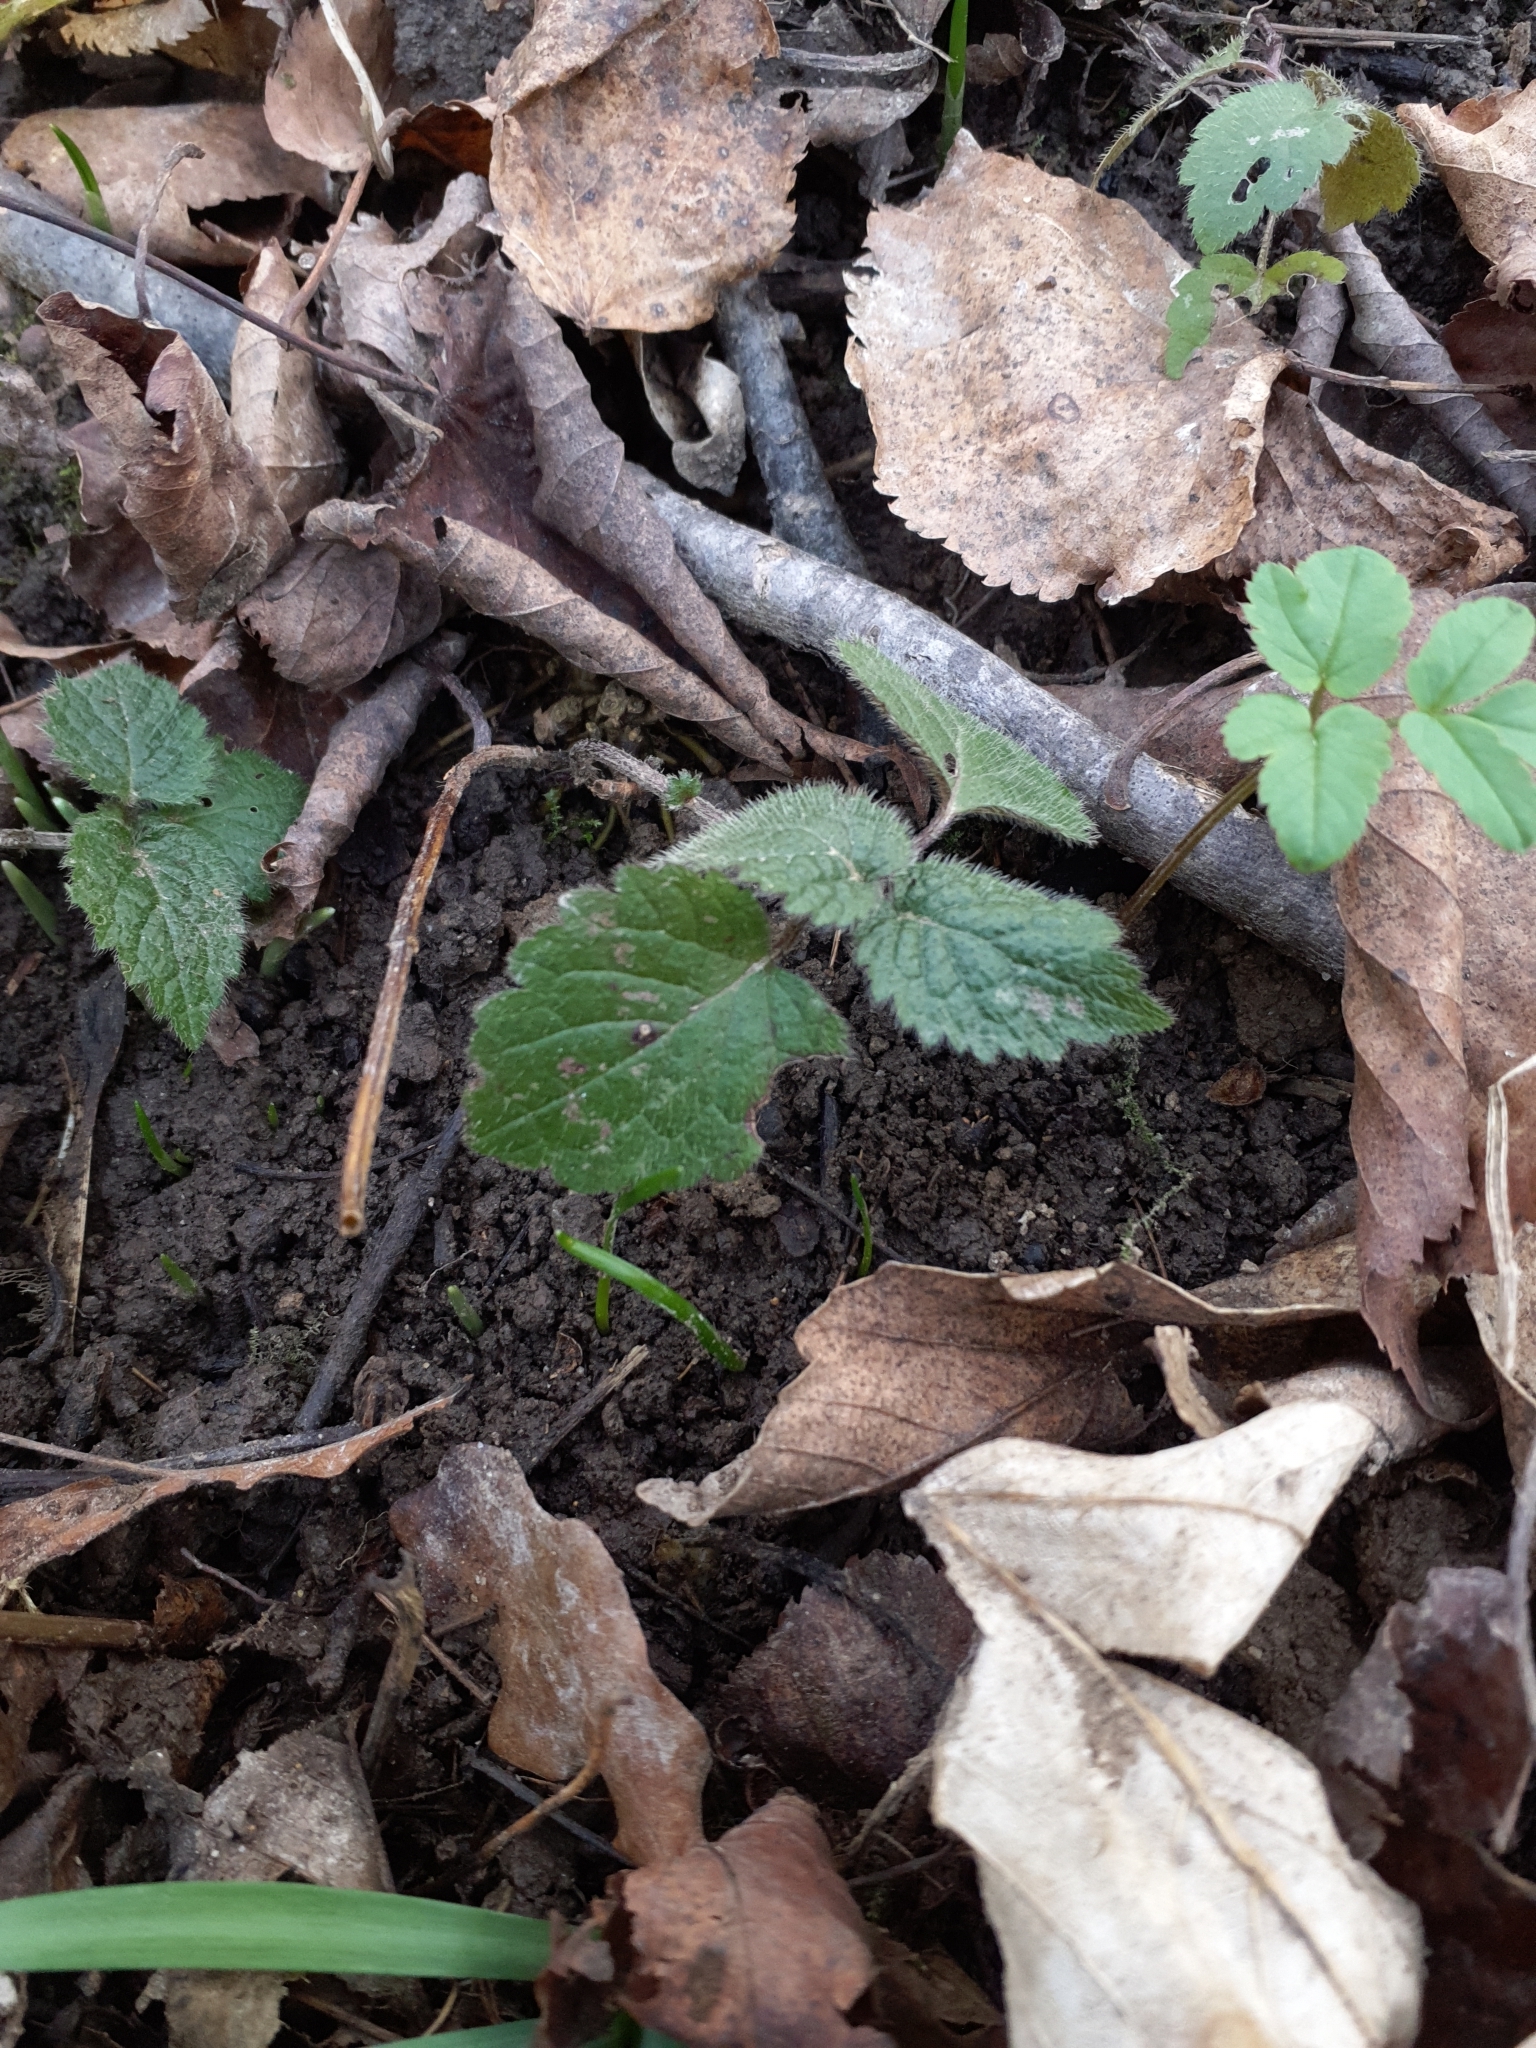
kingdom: Plantae
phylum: Tracheophyta
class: Magnoliopsida
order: Lamiales
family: Lamiaceae
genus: Lamium
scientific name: Lamium galeobdolon
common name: Yellow archangel
